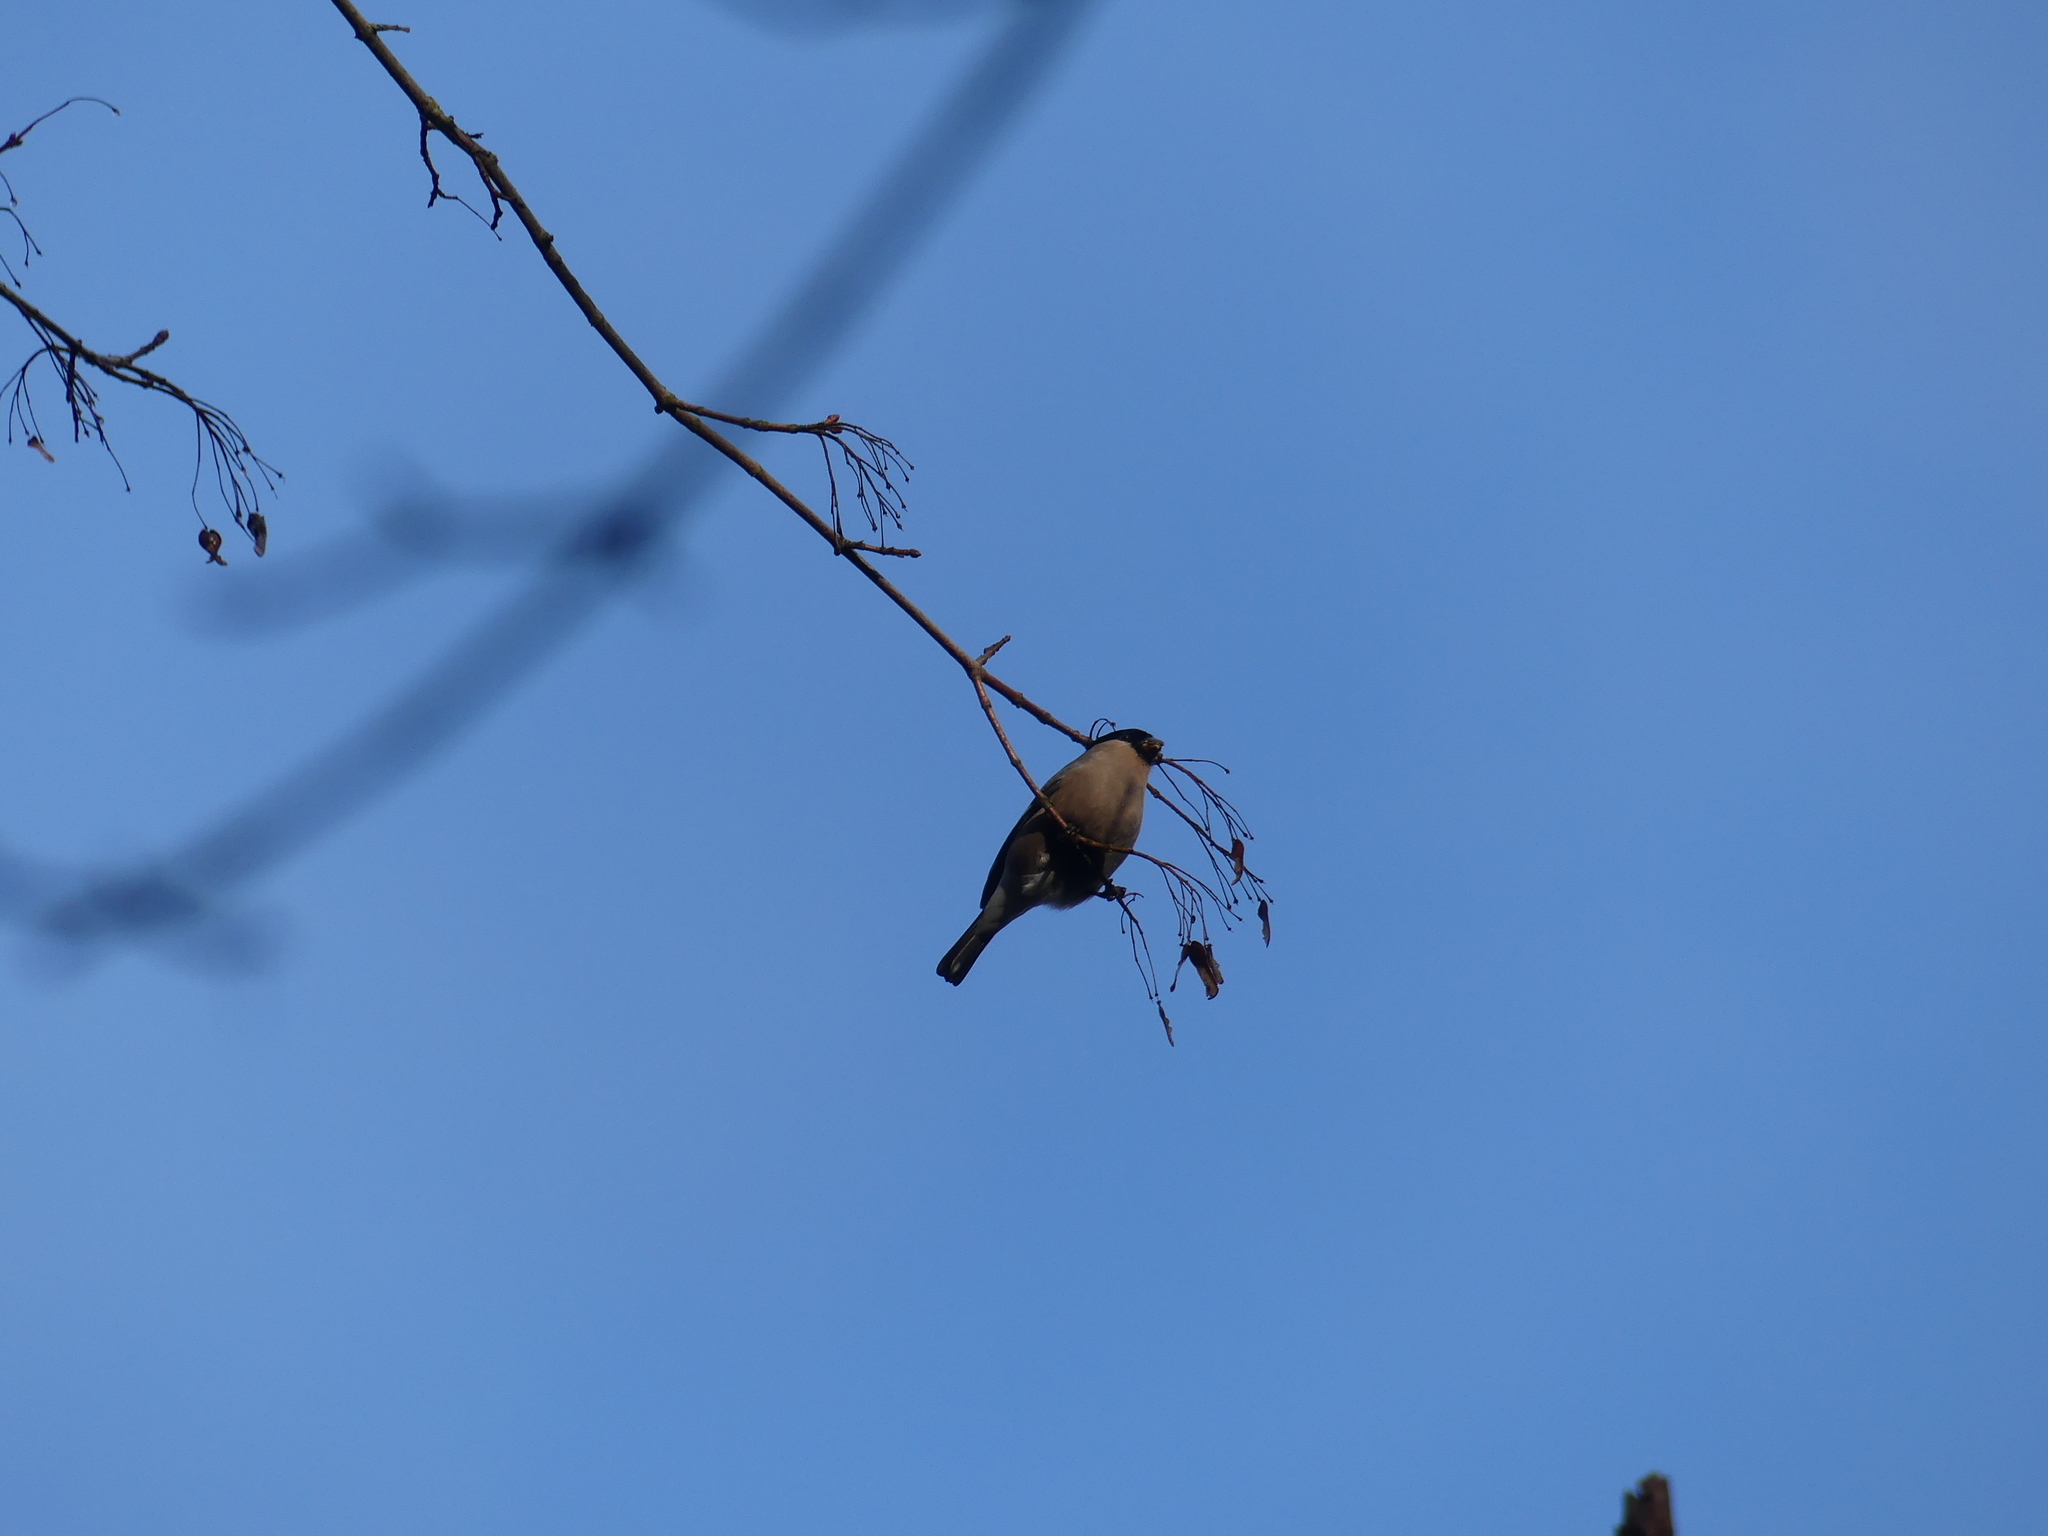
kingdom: Animalia
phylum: Chordata
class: Aves
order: Passeriformes
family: Fringillidae
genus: Pyrrhula
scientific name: Pyrrhula pyrrhula
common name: Eurasian bullfinch
